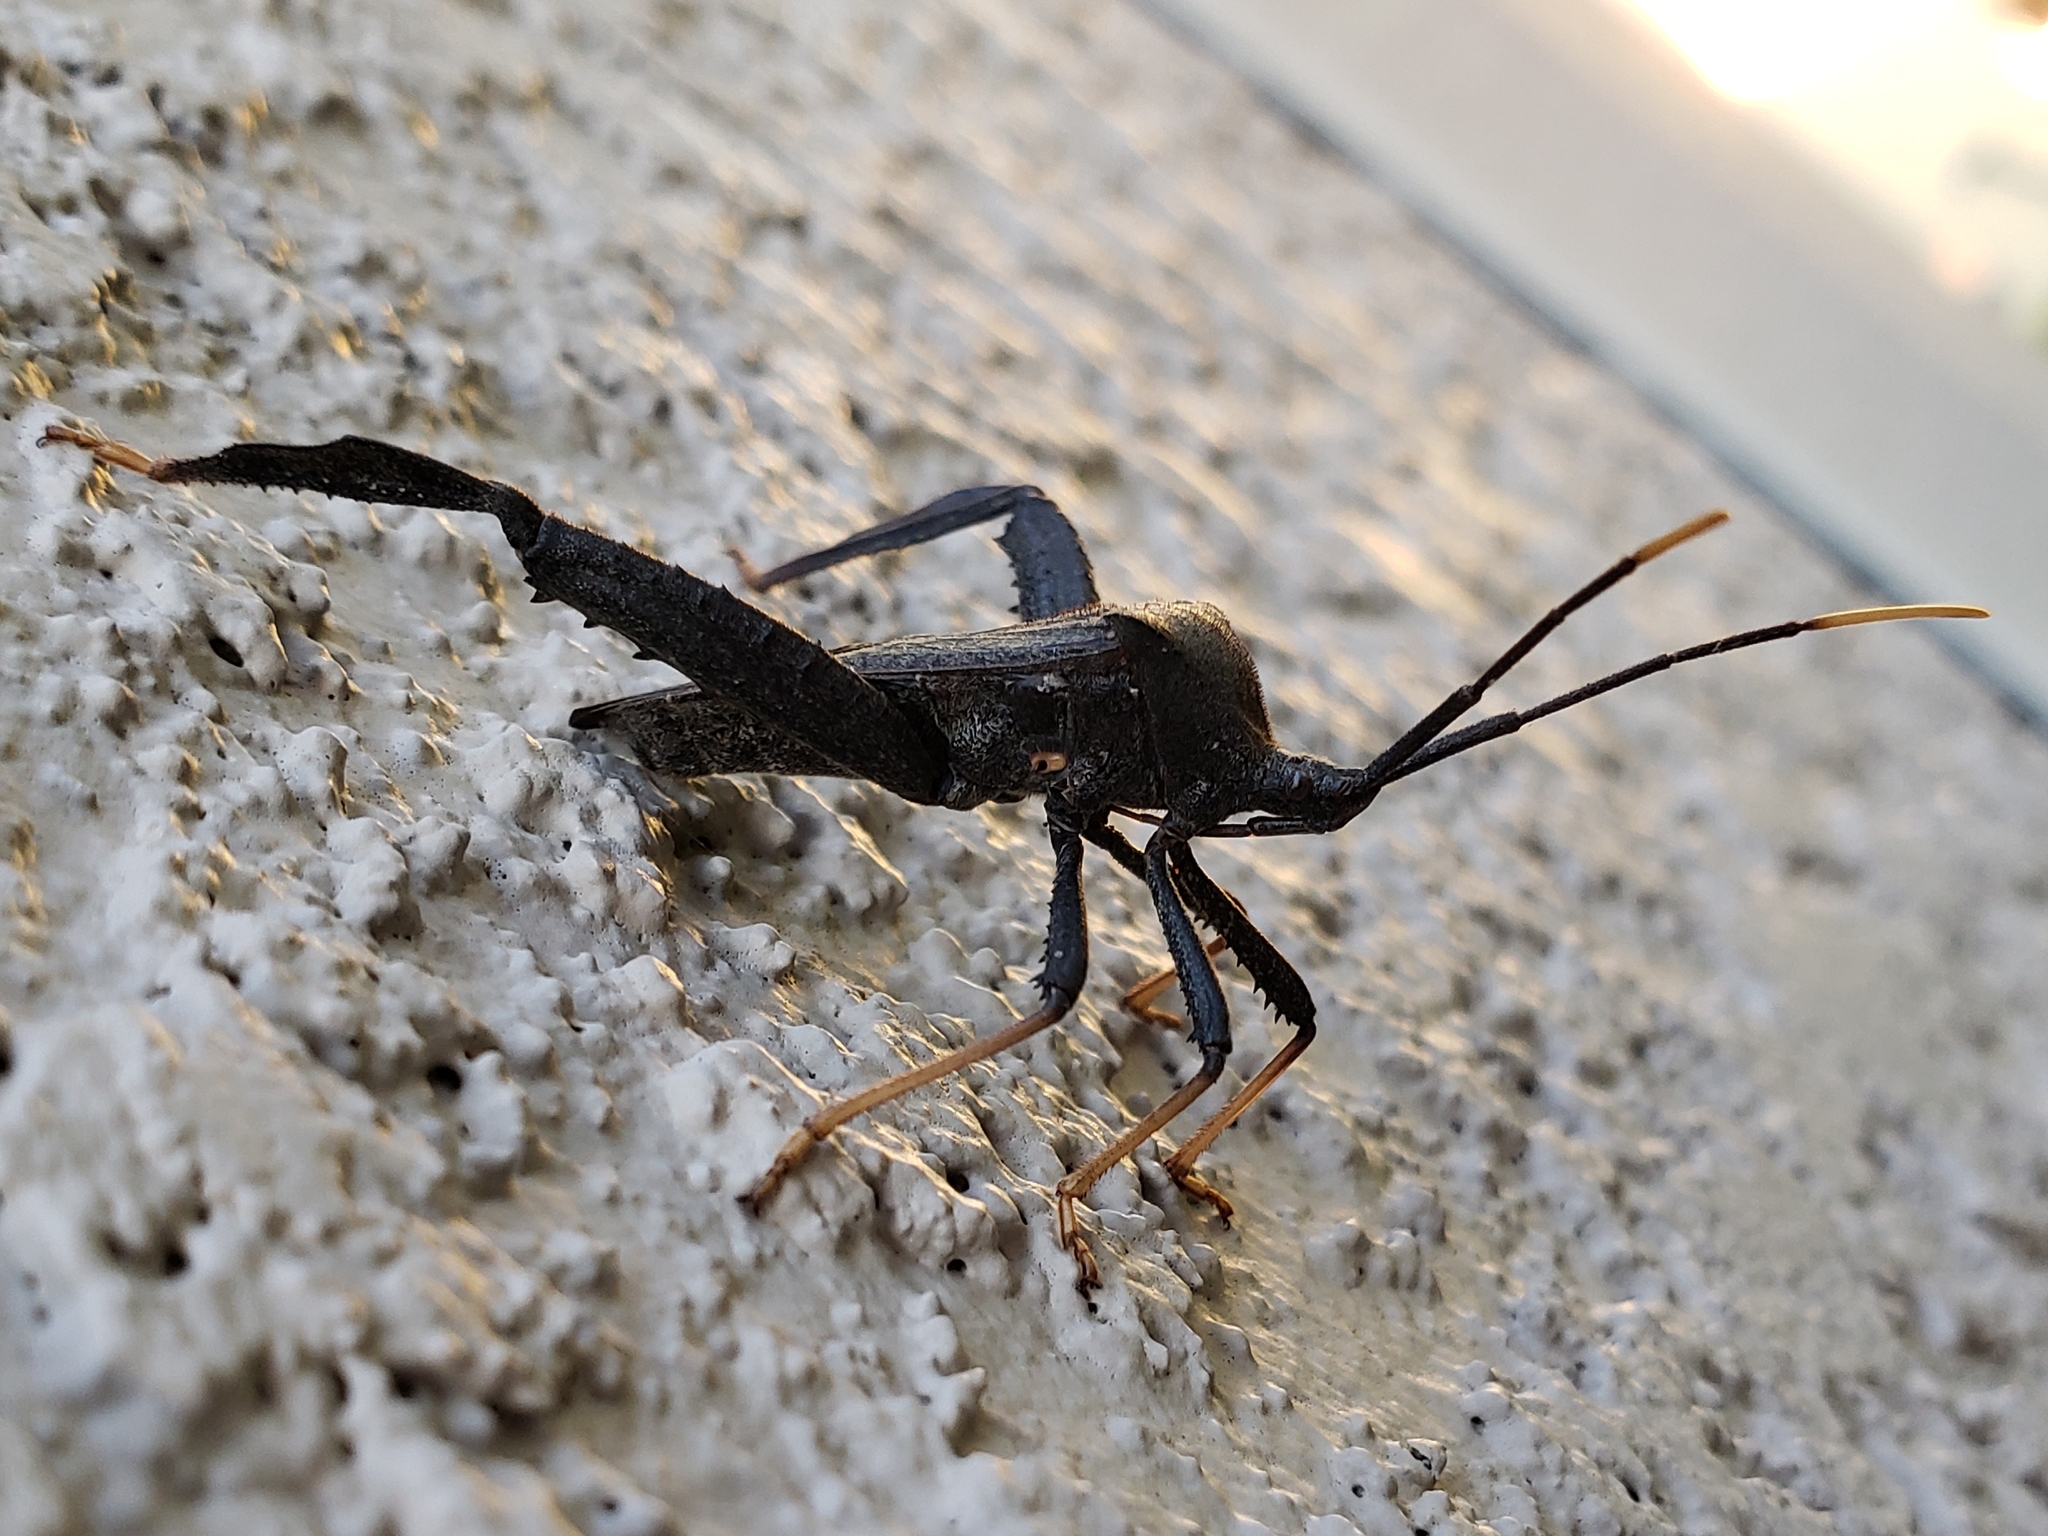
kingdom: Animalia
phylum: Arthropoda
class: Insecta
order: Hemiptera
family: Coreidae
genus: Acanthocephala
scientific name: Acanthocephala terminalis
